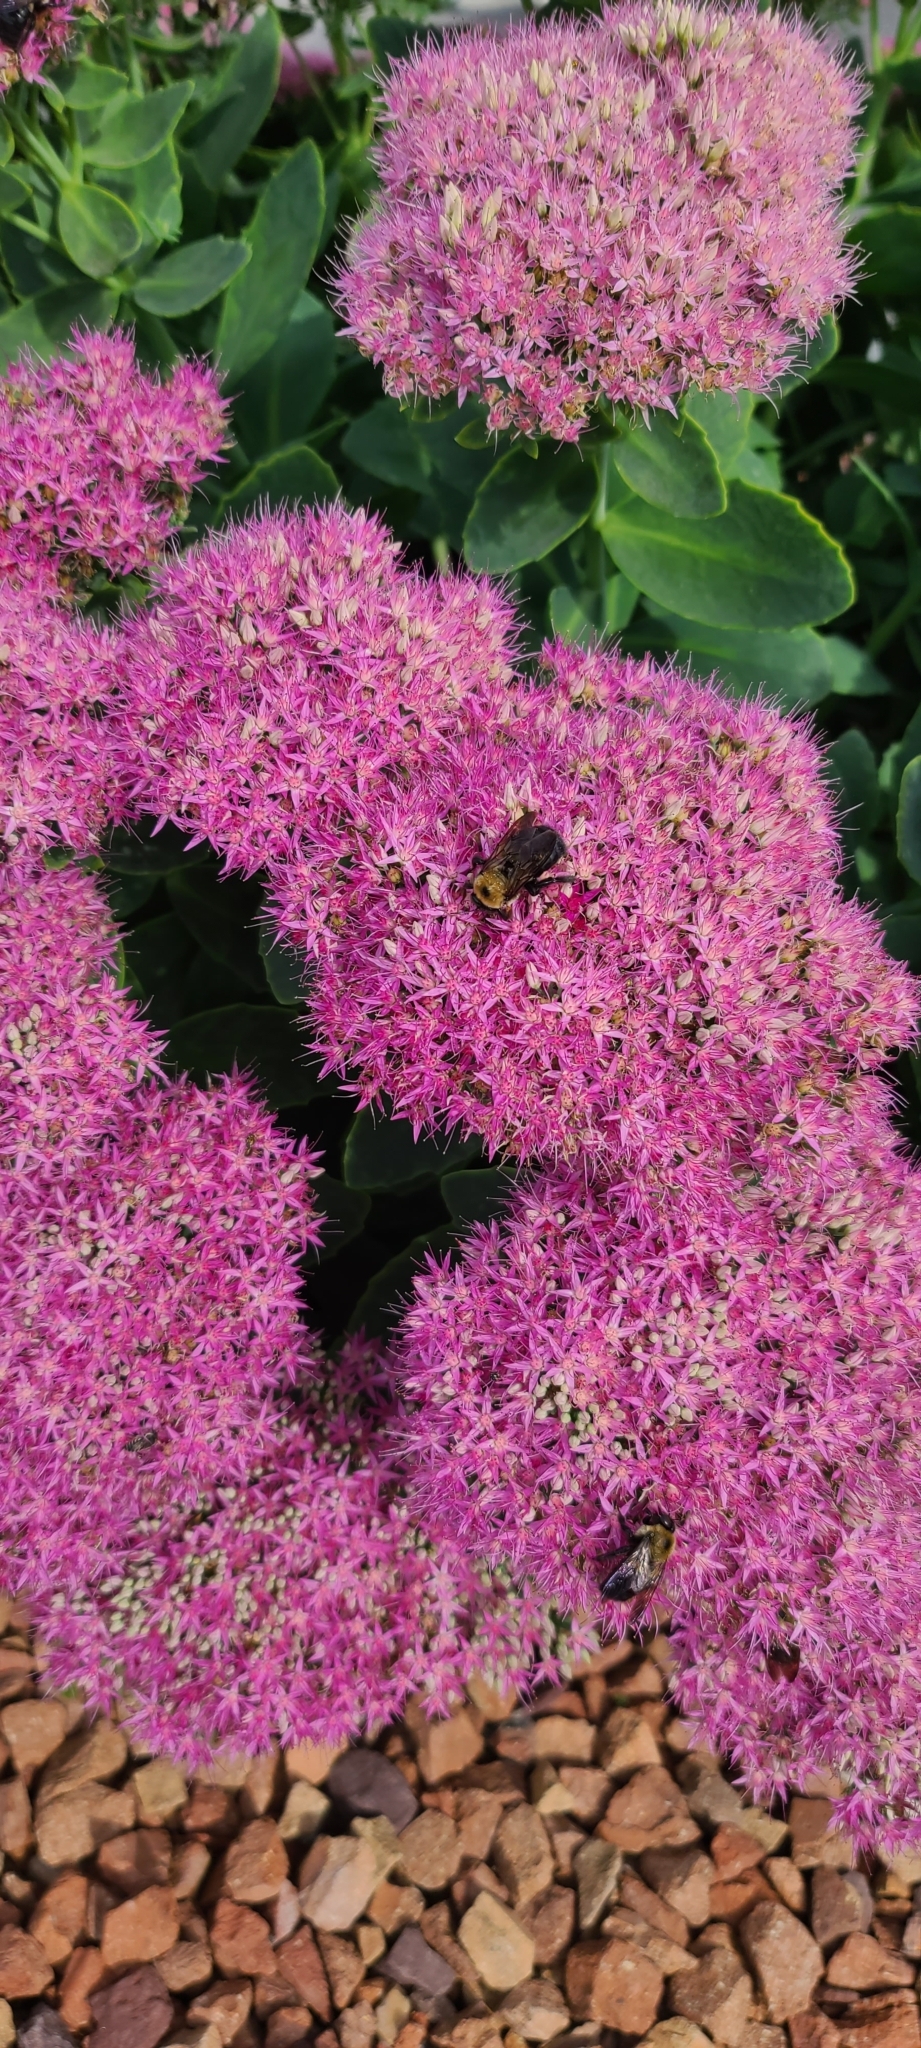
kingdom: Animalia
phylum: Arthropoda
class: Insecta
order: Hymenoptera
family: Apidae
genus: Xylocopa
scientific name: Xylocopa virginica
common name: Carpenter bee
